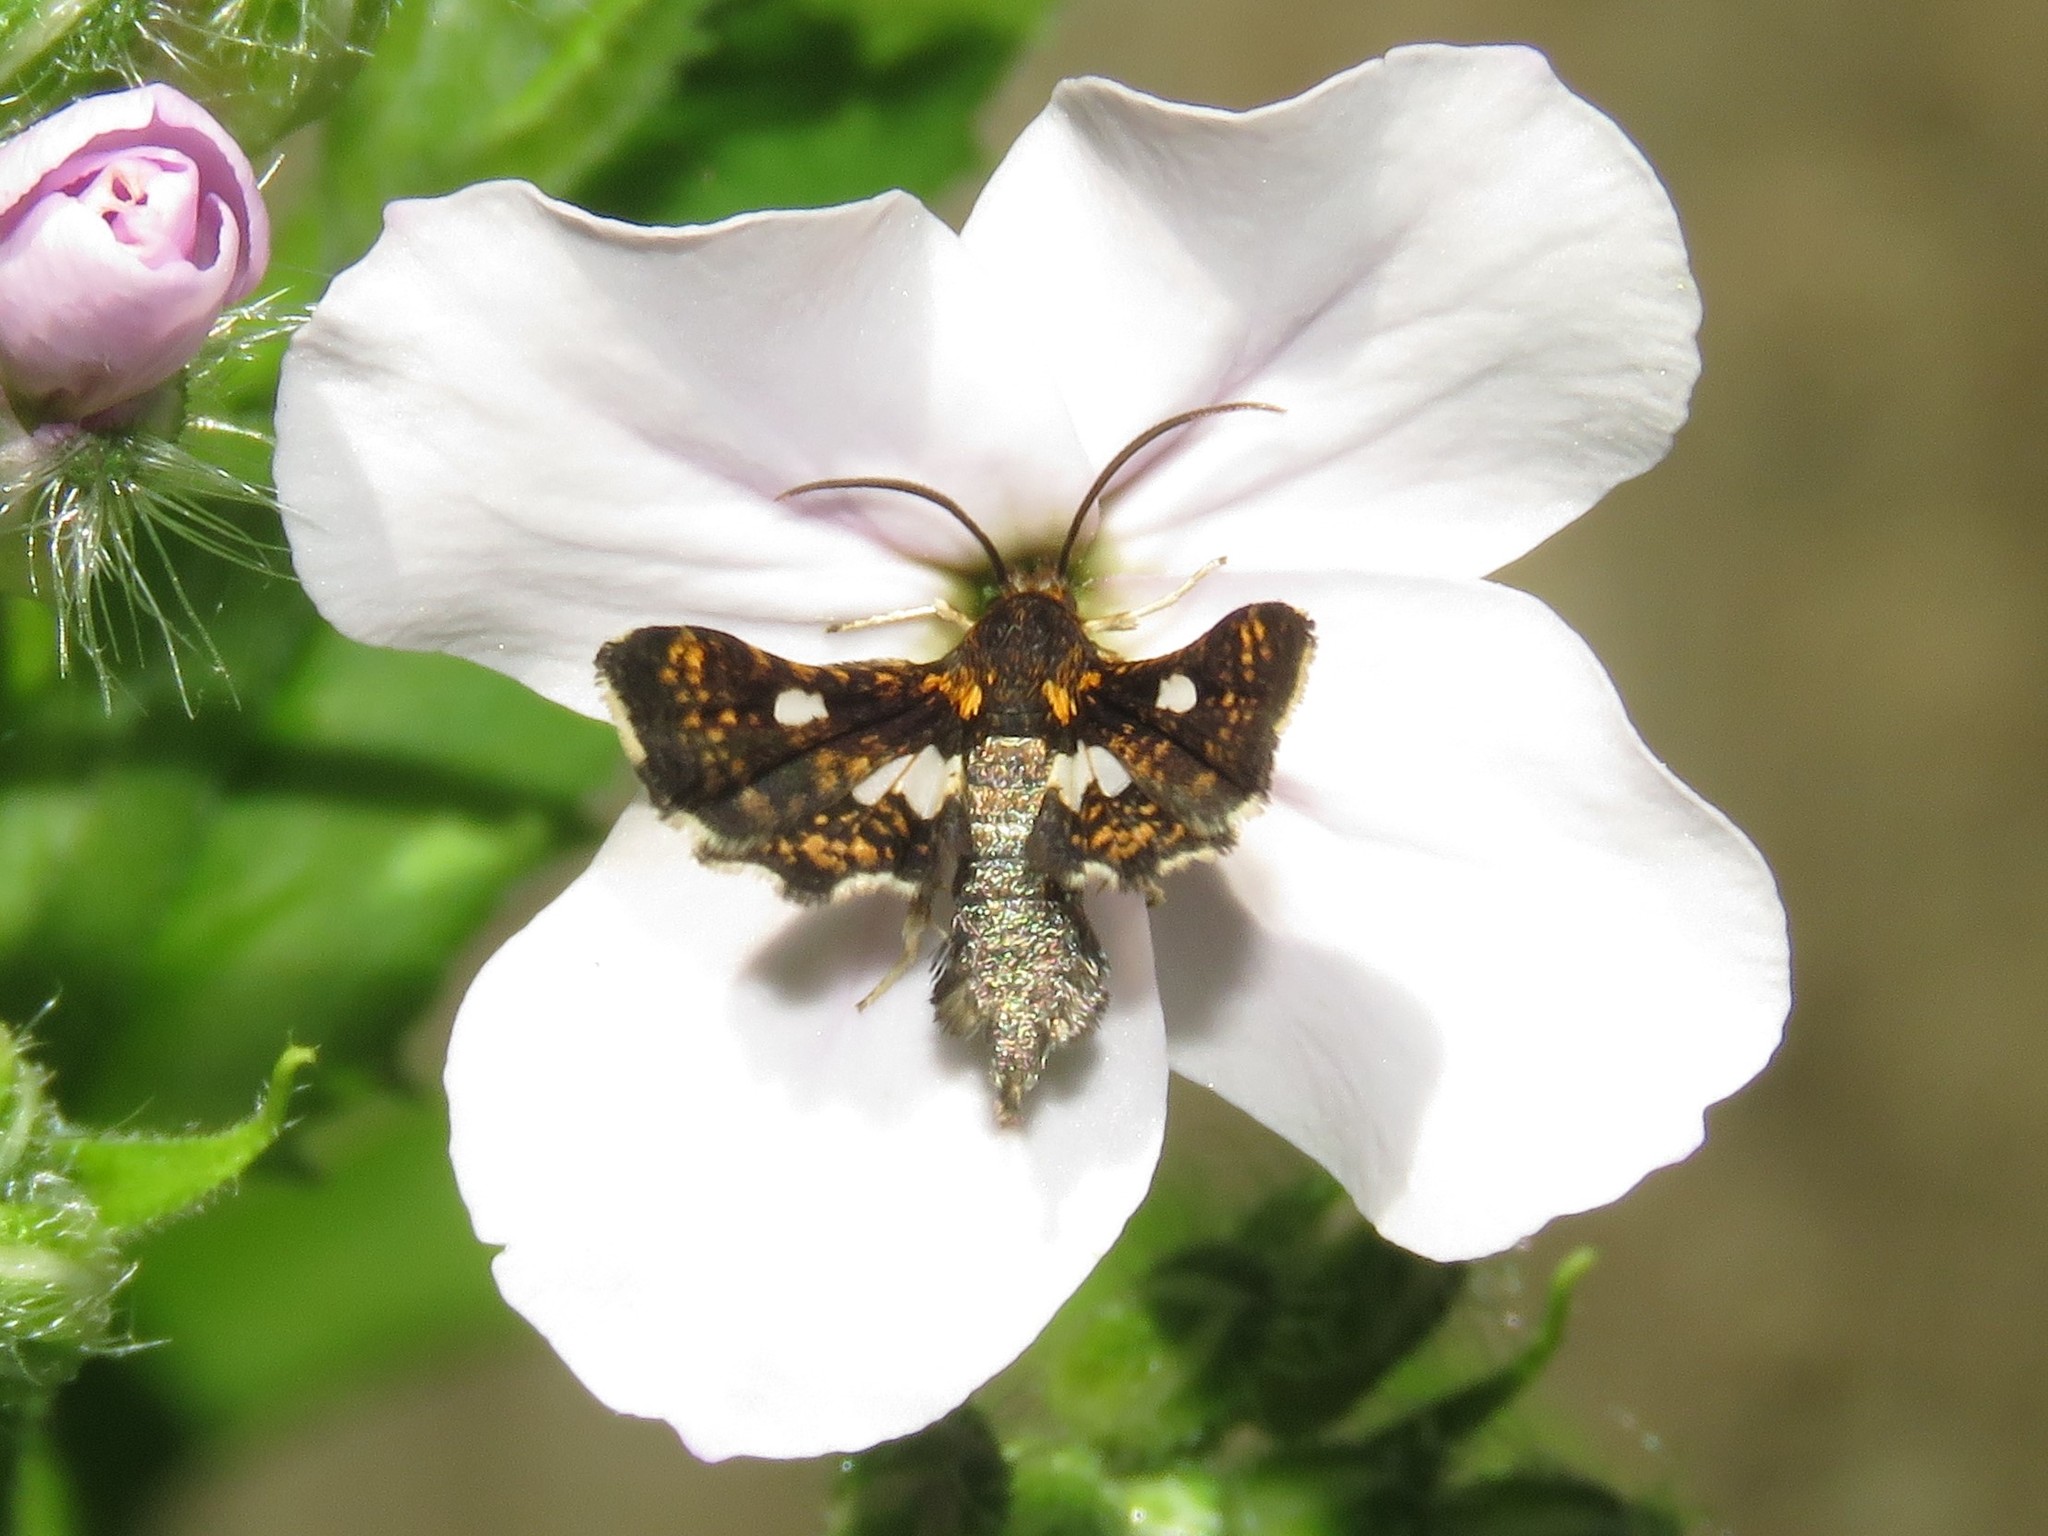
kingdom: Animalia
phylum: Arthropoda
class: Insecta
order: Lepidoptera
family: Thyrididae
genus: Thyris
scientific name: Thyris maculata
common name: Spotted thyris moth
